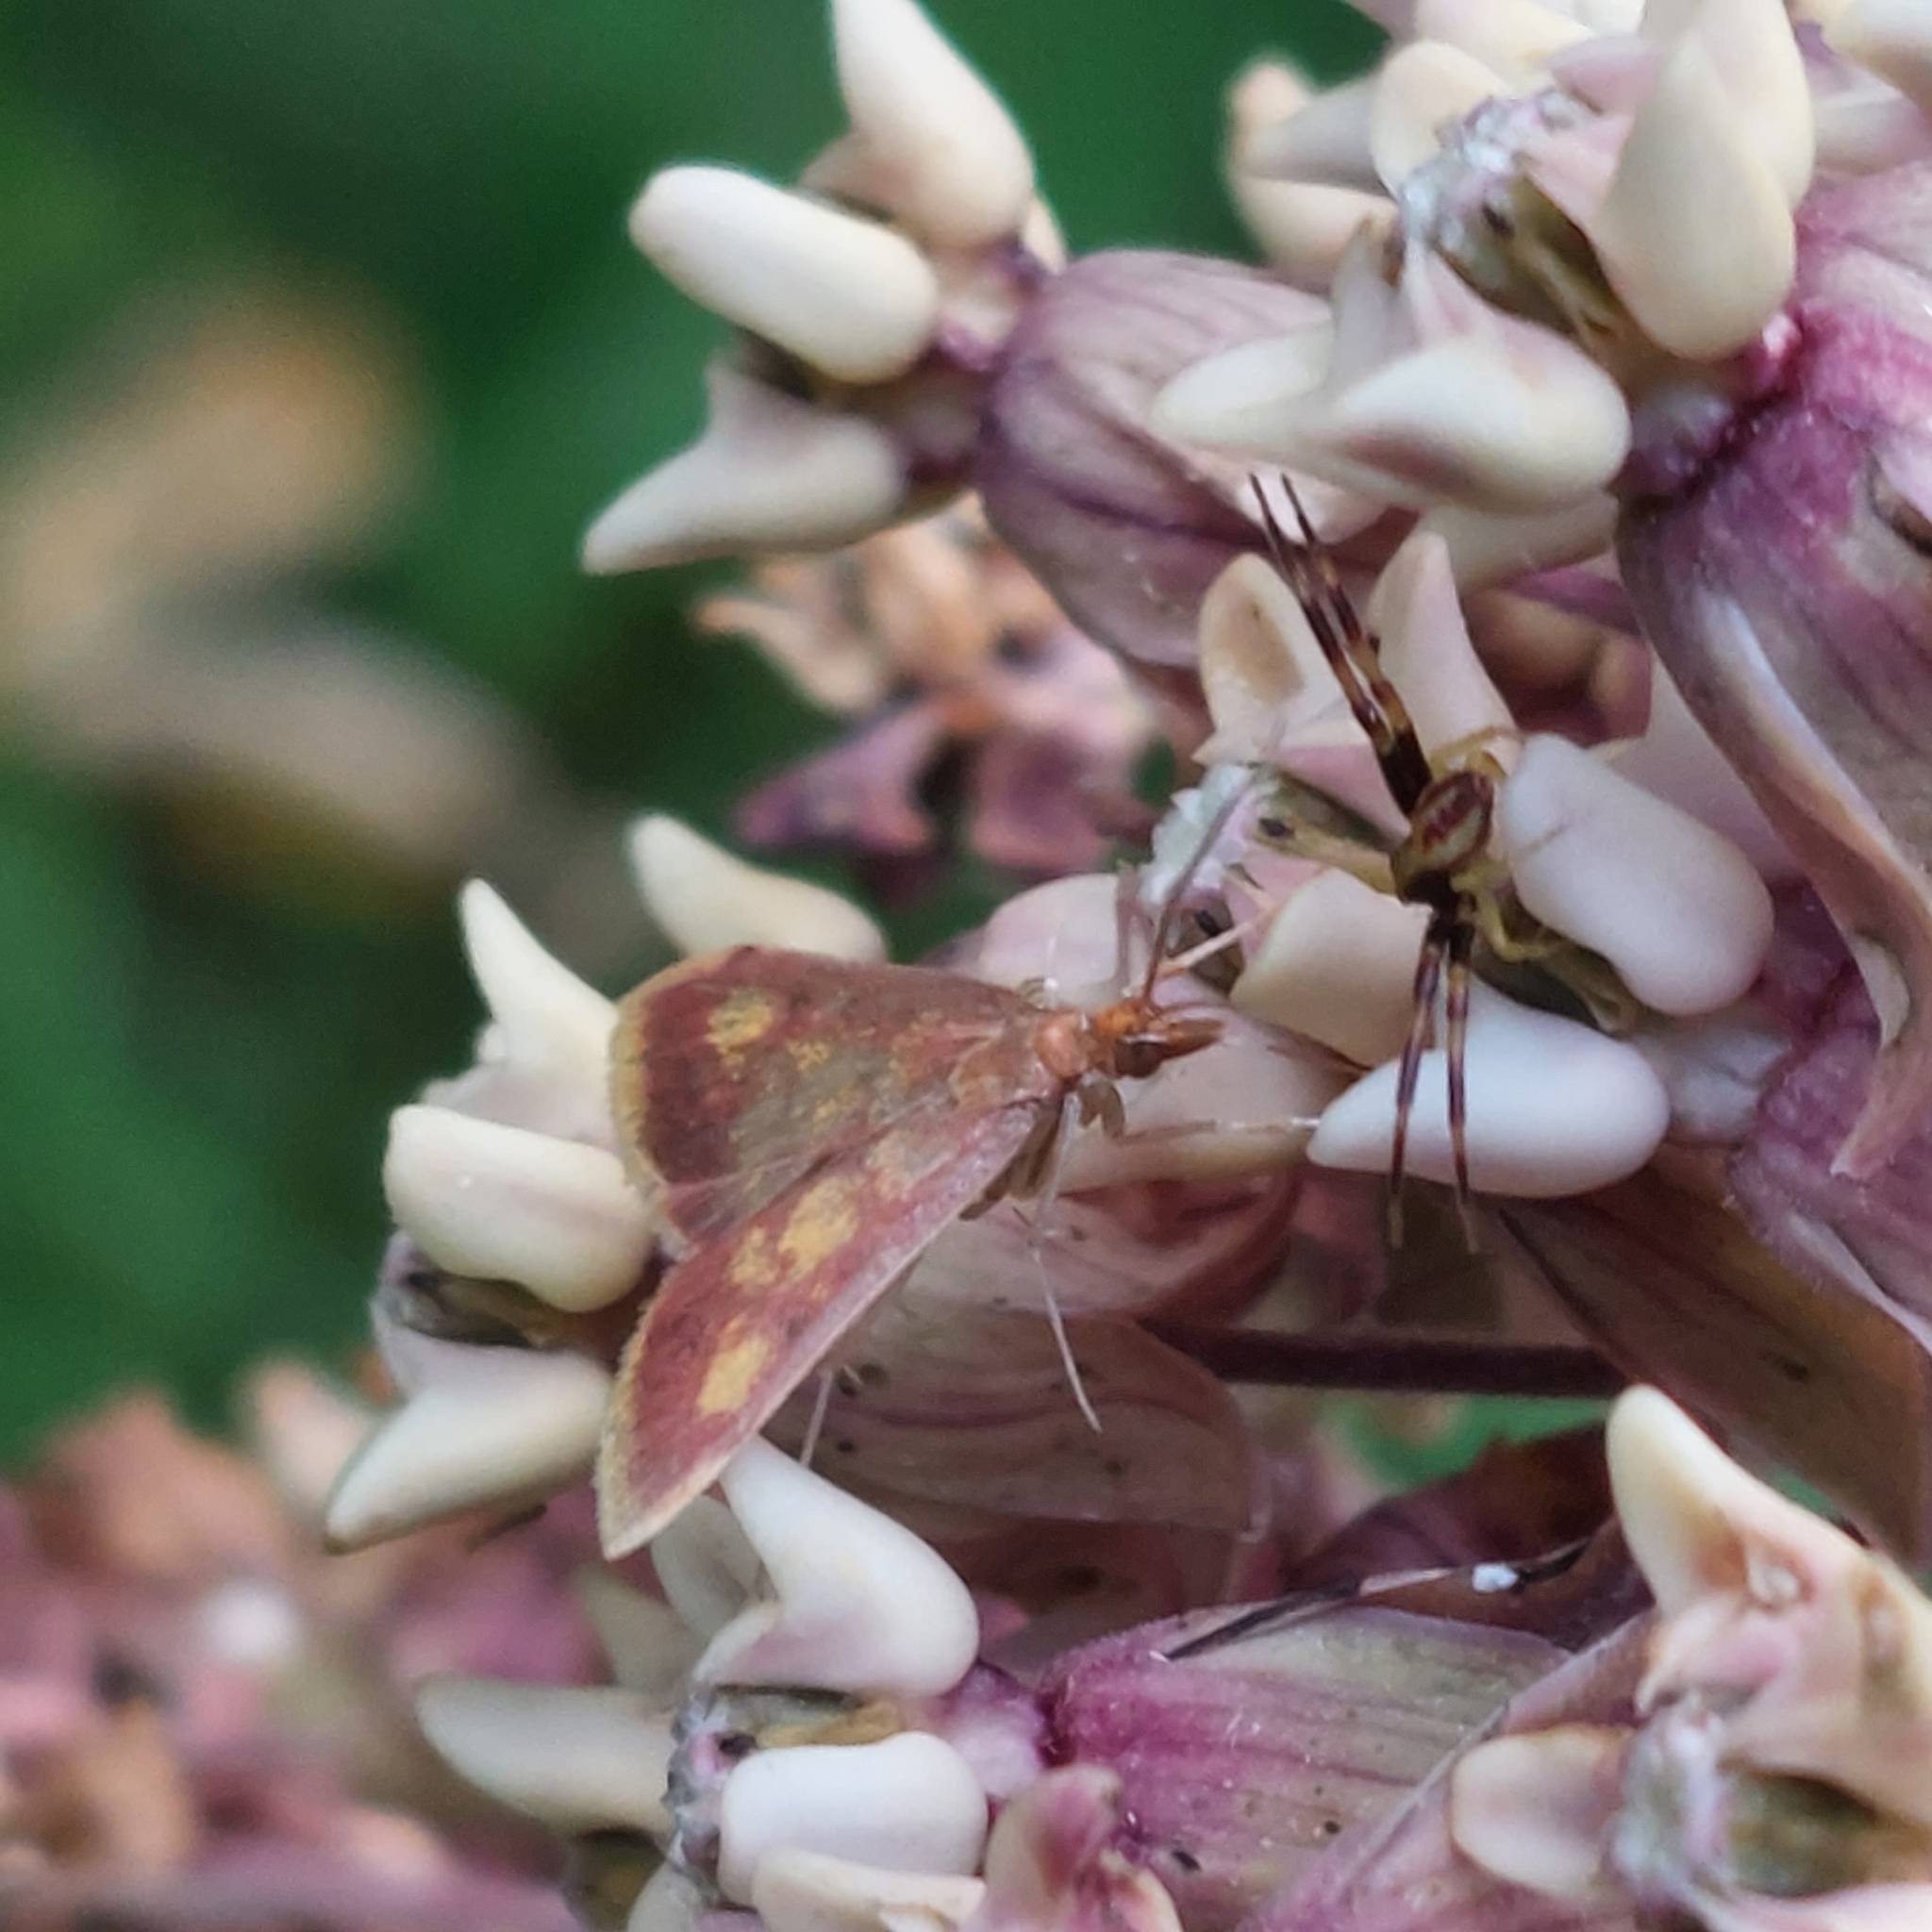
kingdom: Animalia
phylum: Arthropoda
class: Insecta
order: Lepidoptera
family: Crambidae
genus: Pyrausta
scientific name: Pyrausta acrionalis
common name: Mint-loving pyrausta moth
